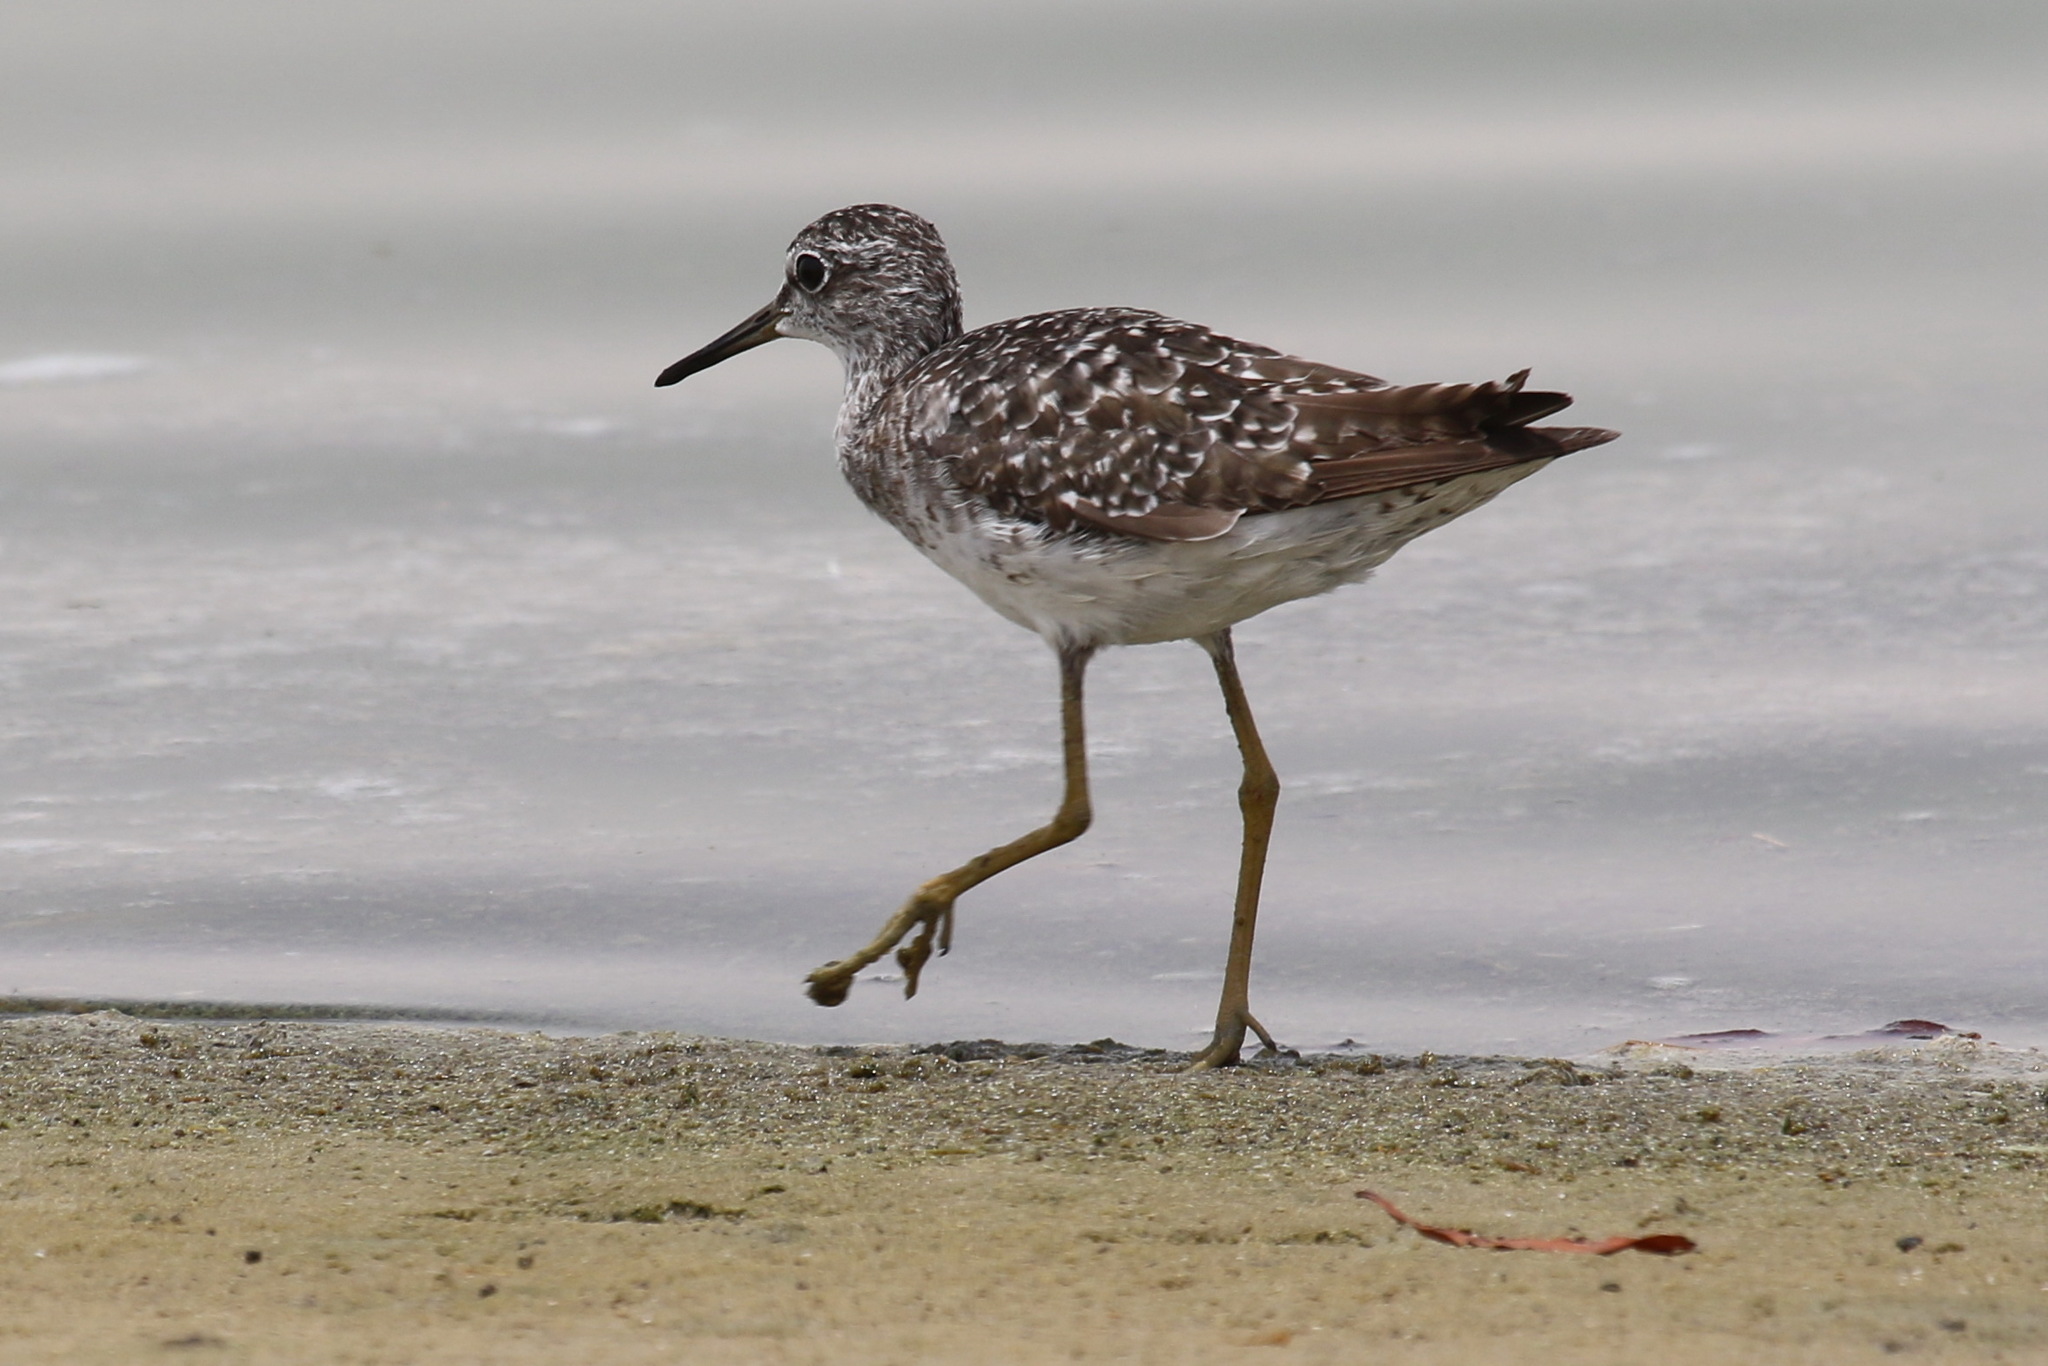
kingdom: Animalia
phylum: Chordata
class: Aves
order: Charadriiformes
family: Scolopacidae
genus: Tringa
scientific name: Tringa glareola
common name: Wood sandpiper
